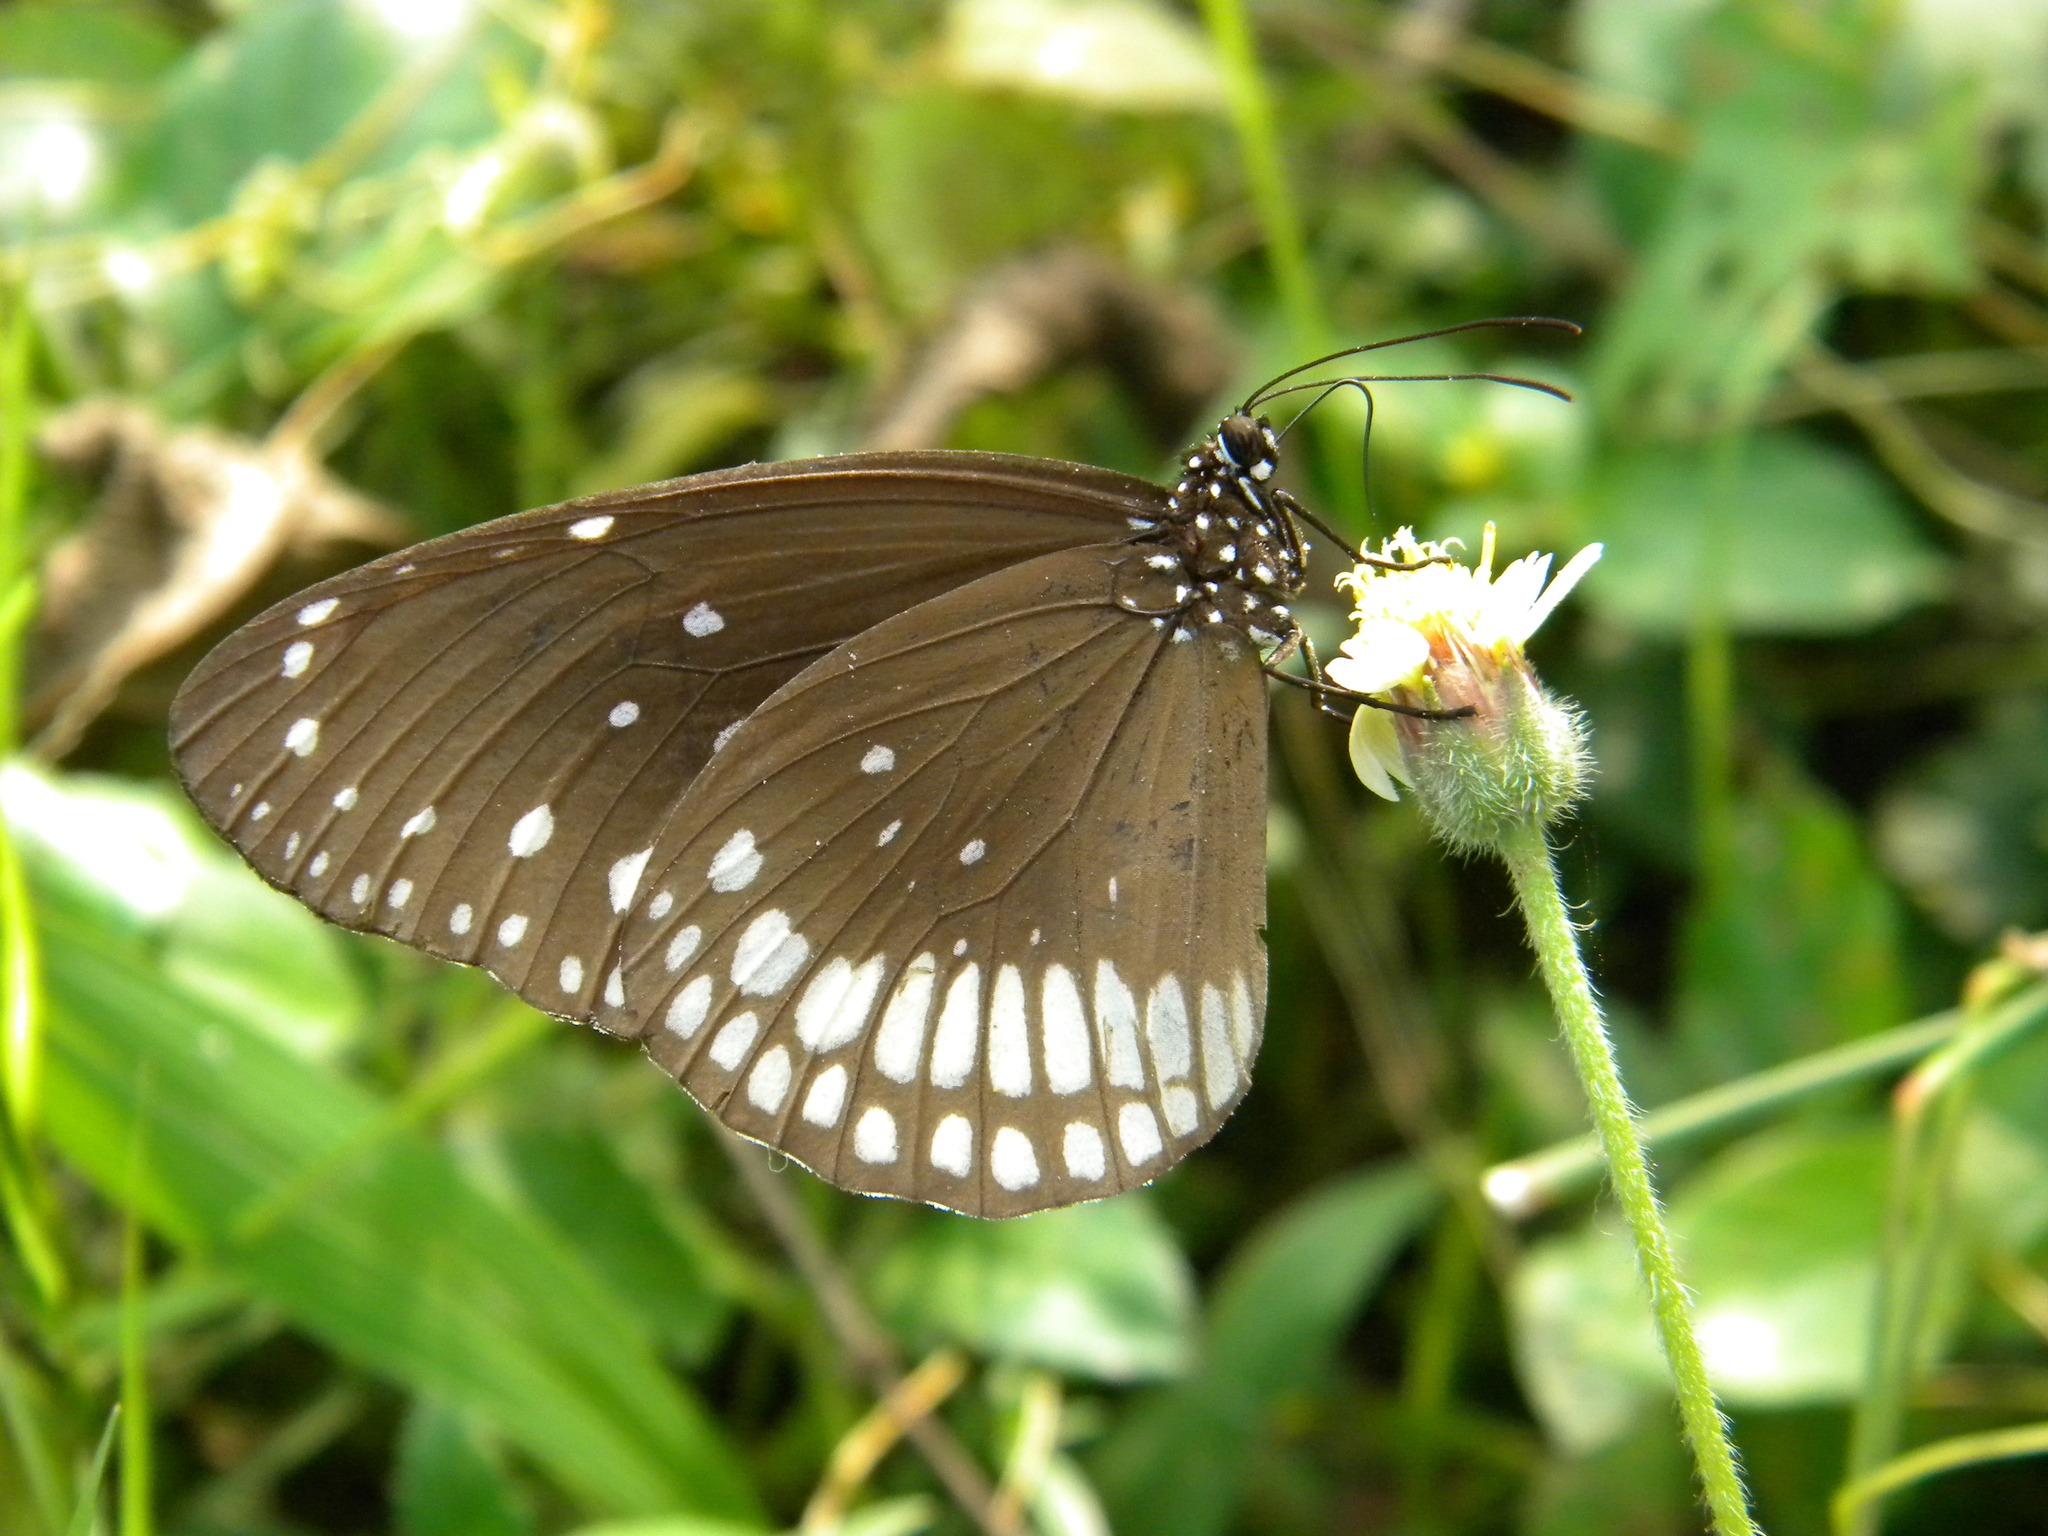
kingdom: Animalia
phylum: Arthropoda
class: Insecta
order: Lepidoptera
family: Nymphalidae
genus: Euploea
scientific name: Euploea core
